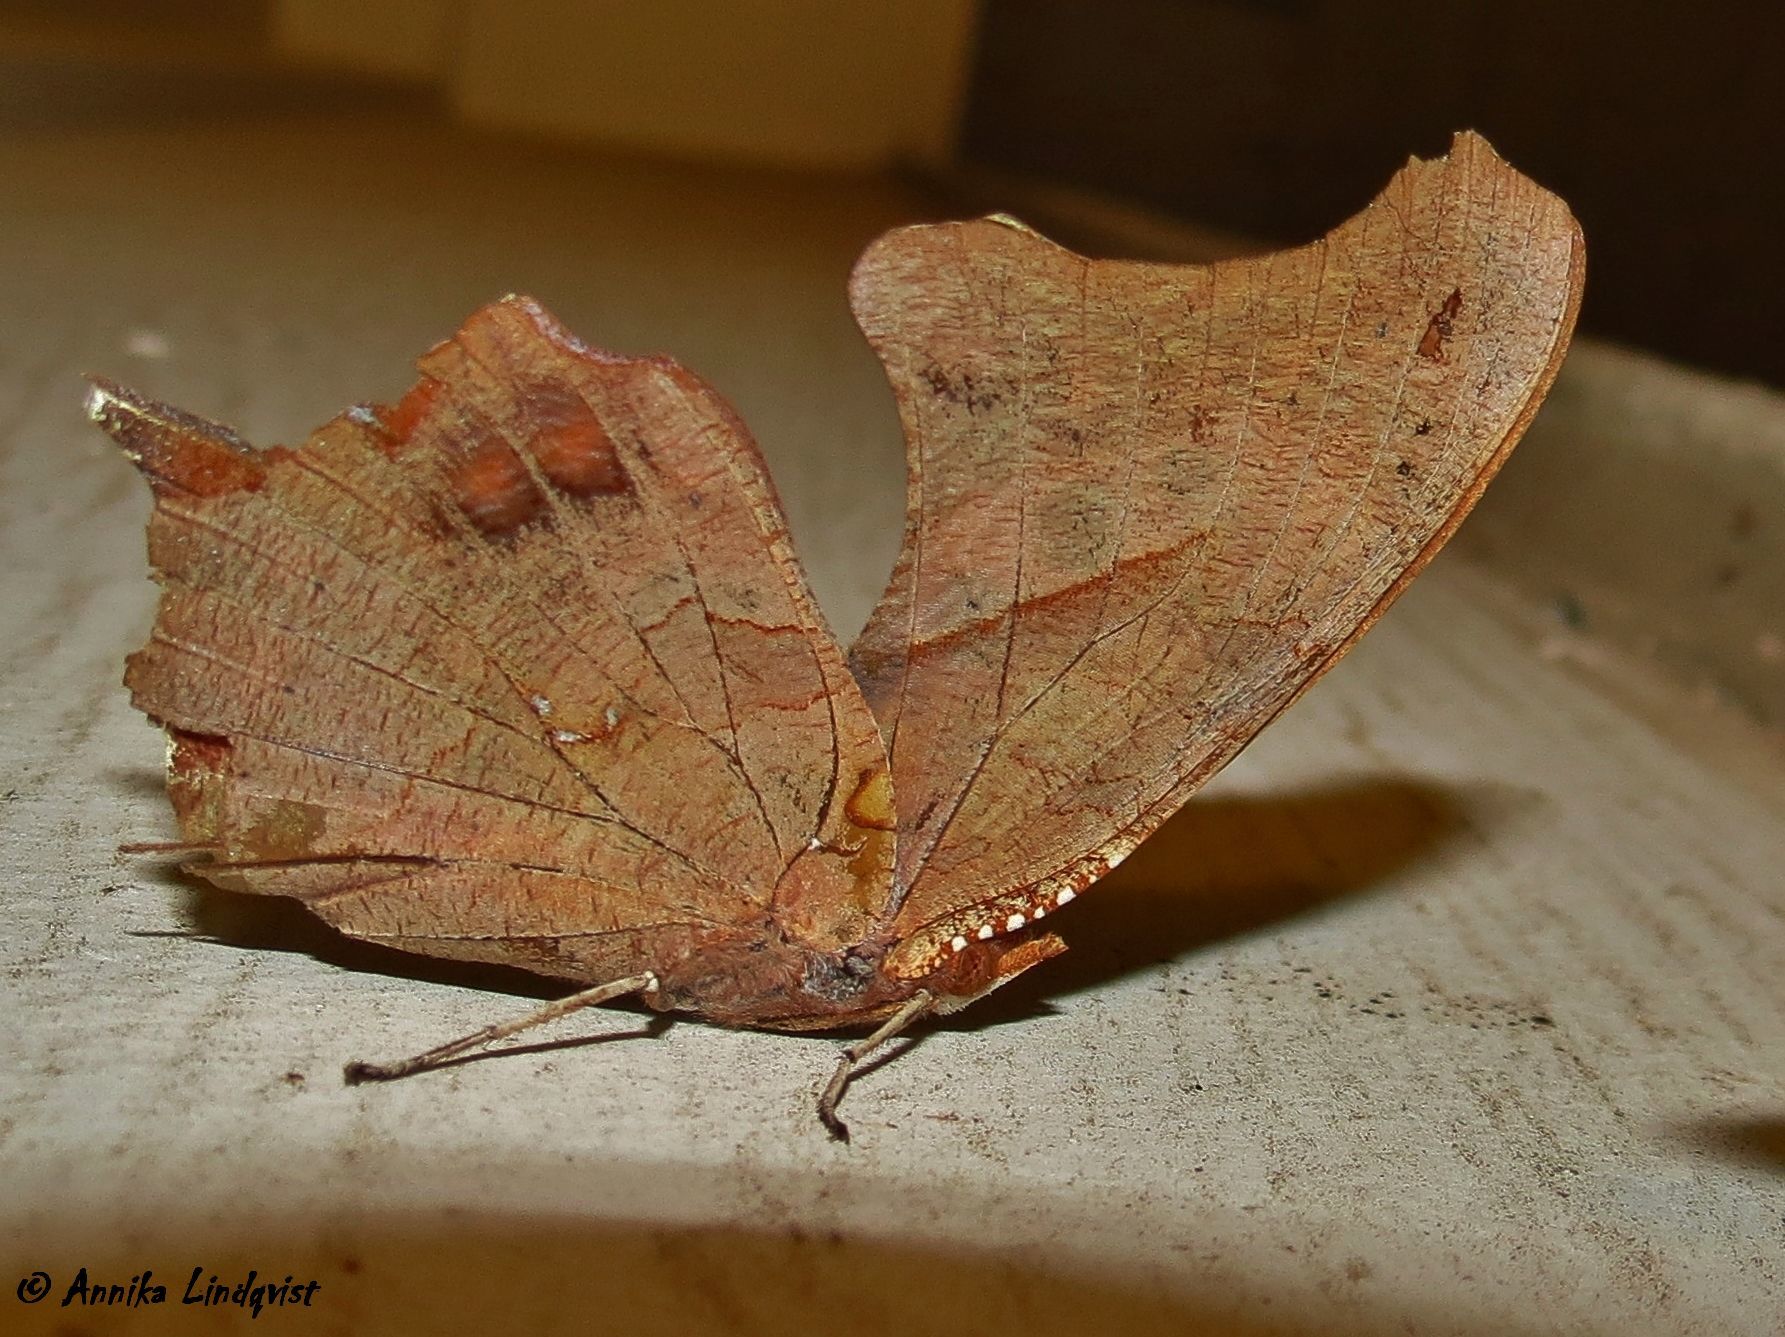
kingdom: Animalia
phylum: Arthropoda
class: Insecta
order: Lepidoptera
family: Nymphalidae
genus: Polygonia
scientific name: Polygonia interrogationis
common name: Question mark
